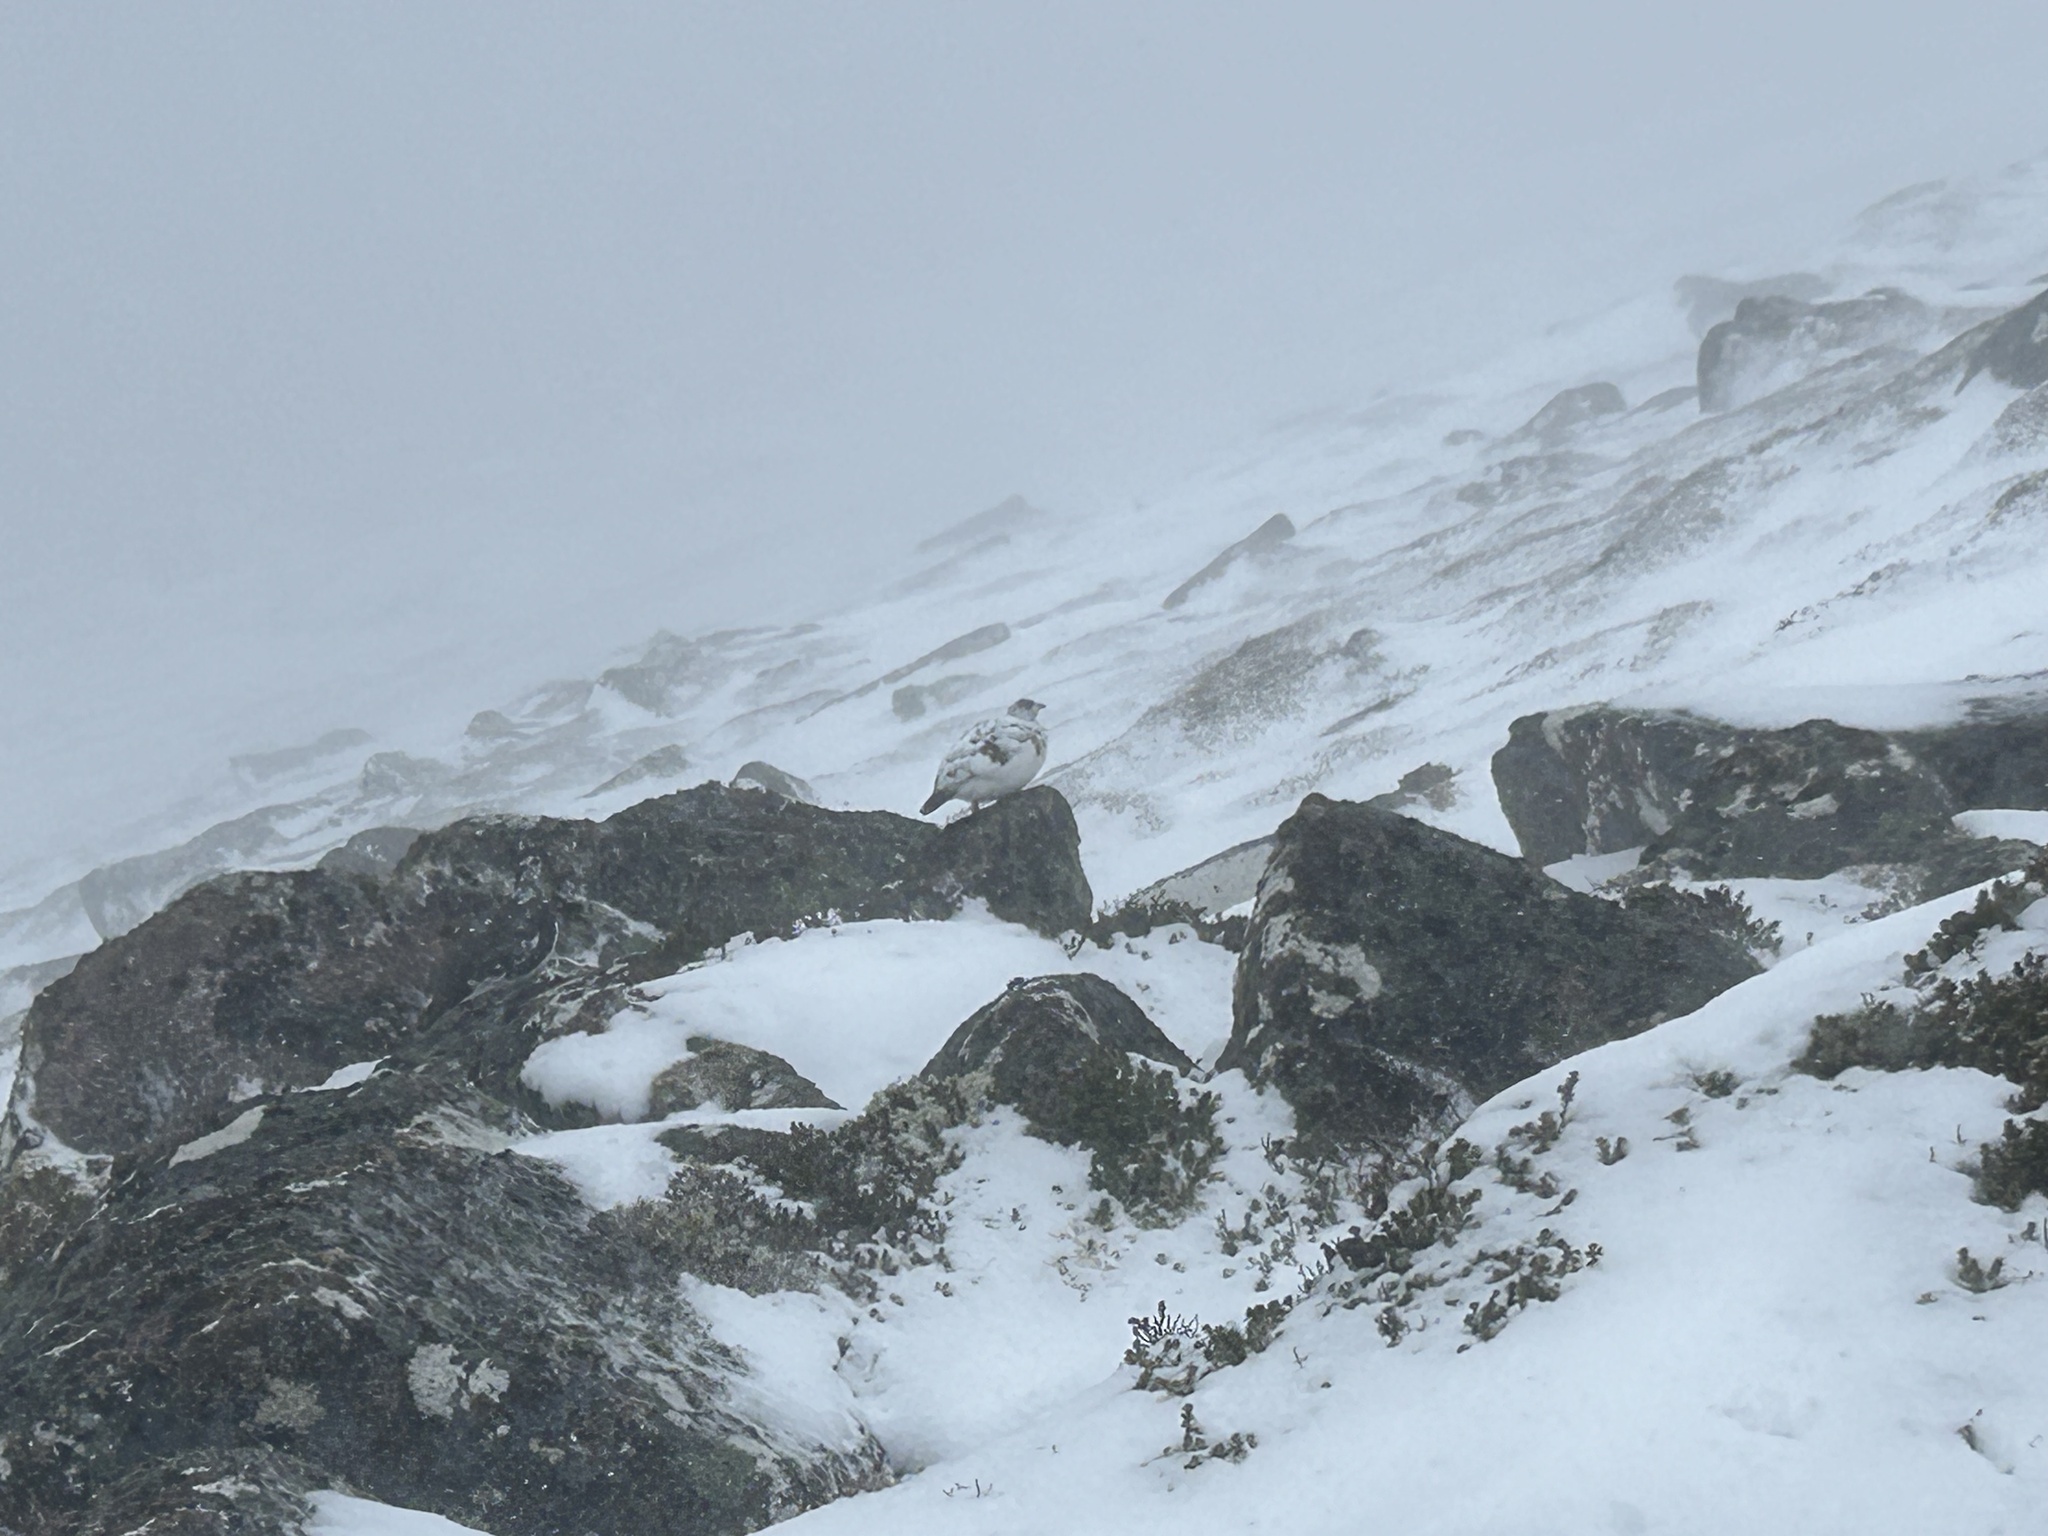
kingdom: Animalia
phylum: Chordata
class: Aves
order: Galliformes
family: Phasianidae
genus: Lagopus
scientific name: Lagopus muta
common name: Rock ptarmigan
